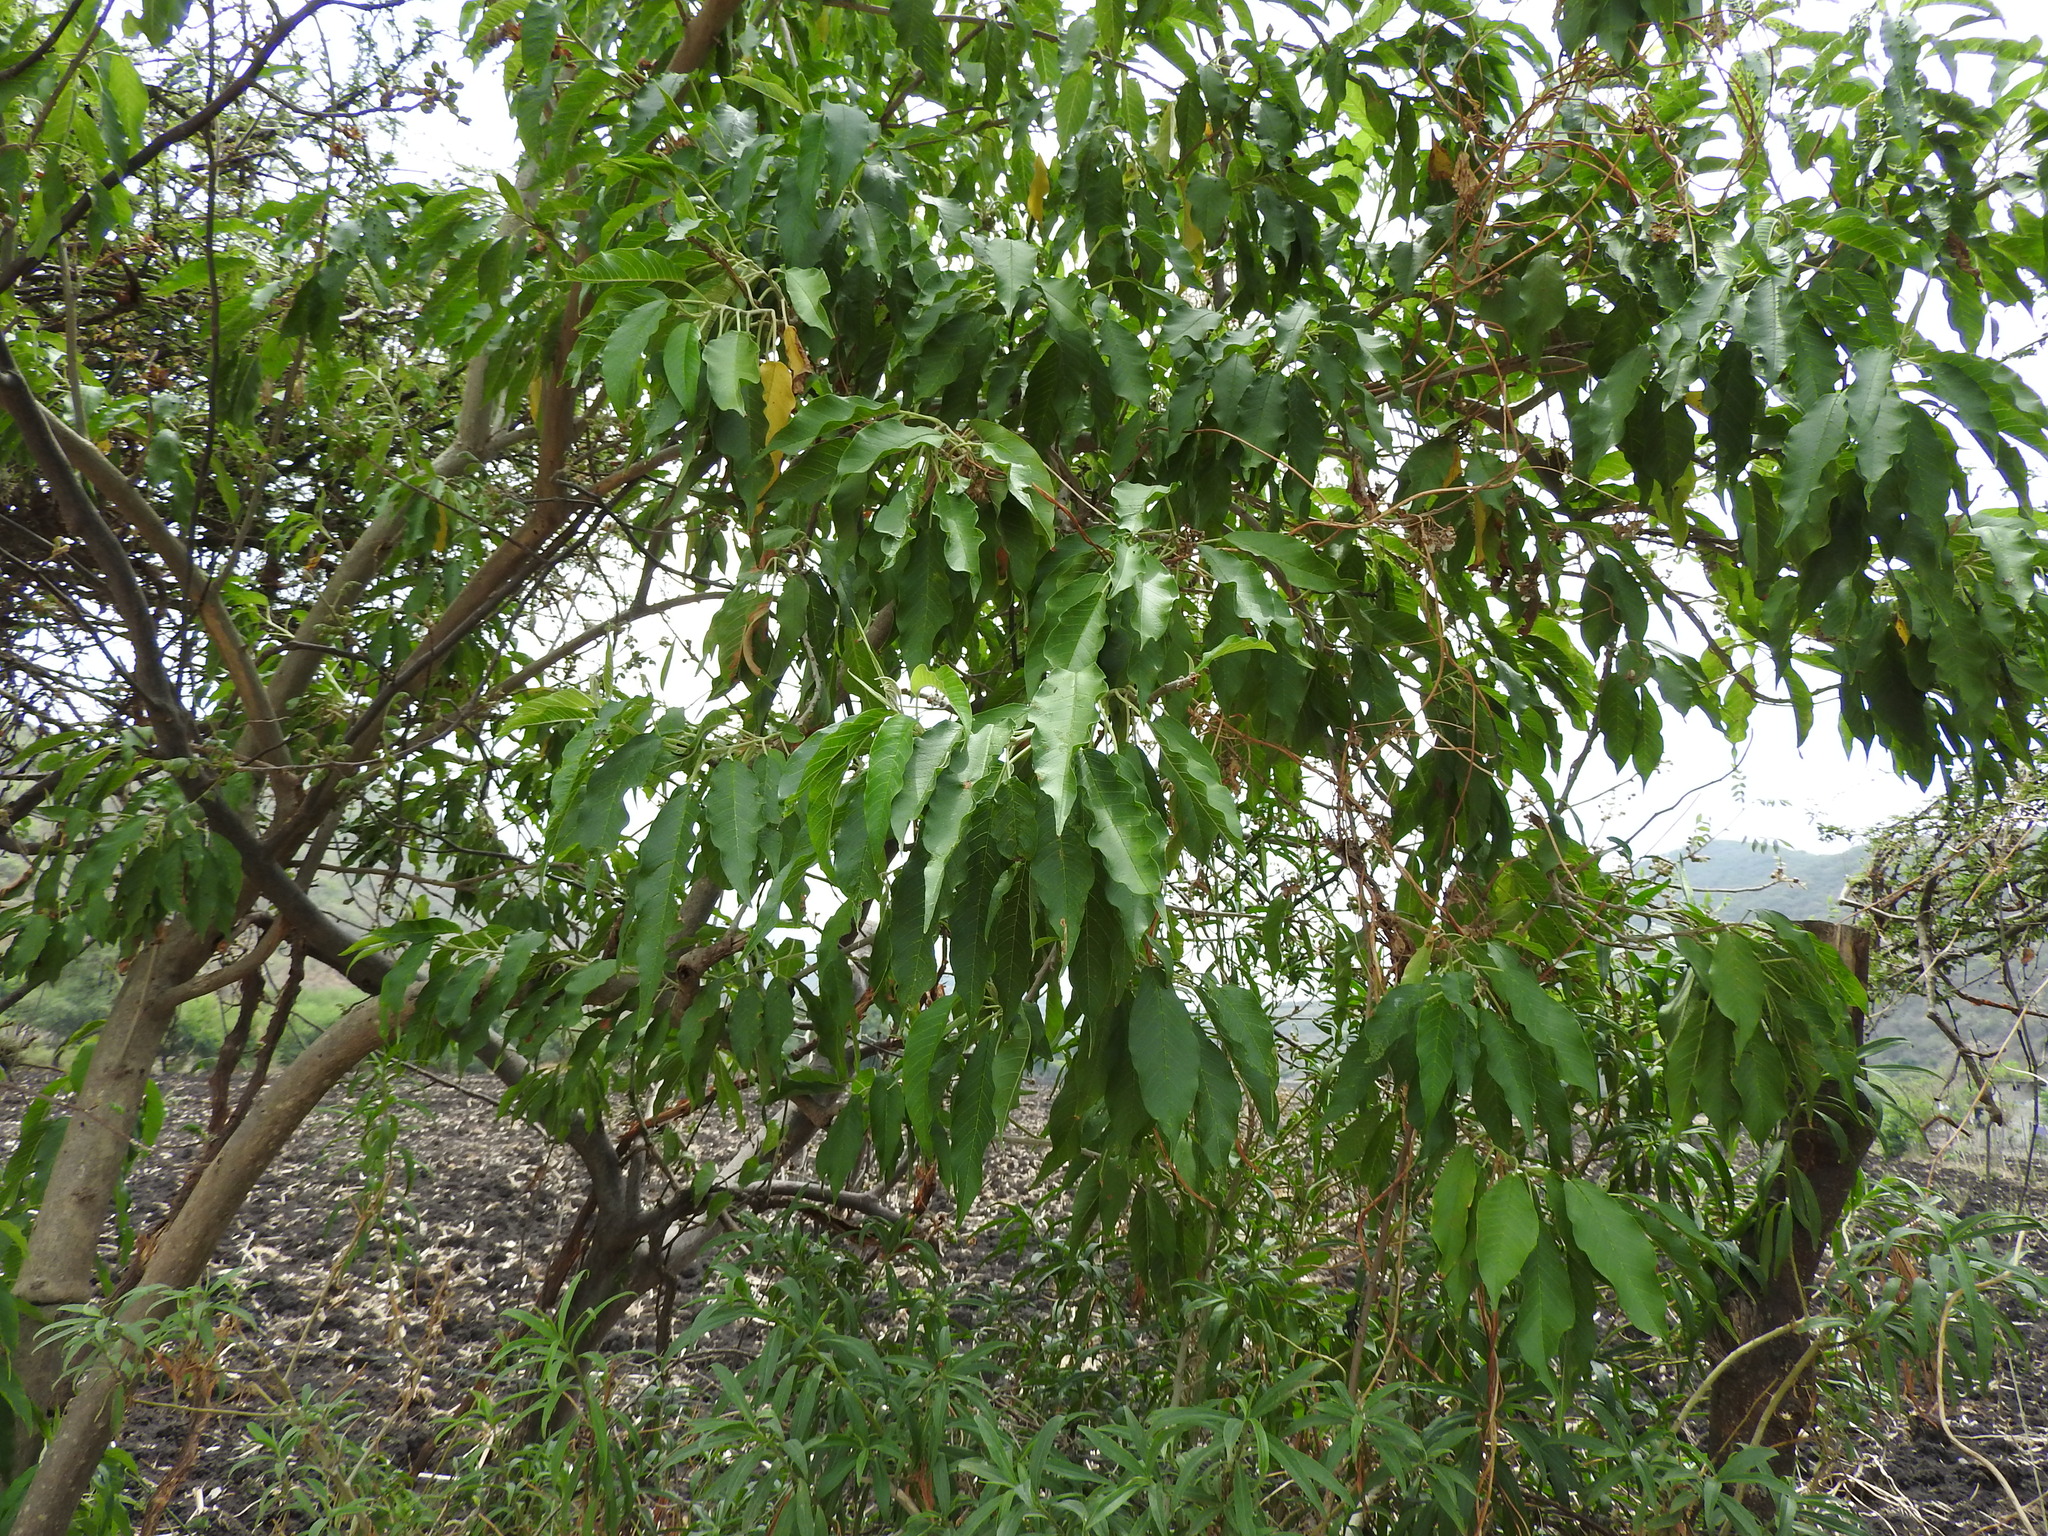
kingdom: Plantae
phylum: Tracheophyta
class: Magnoliopsida
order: Solanales
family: Convolvulaceae
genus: Ipomoea
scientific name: Ipomoea murucoides
